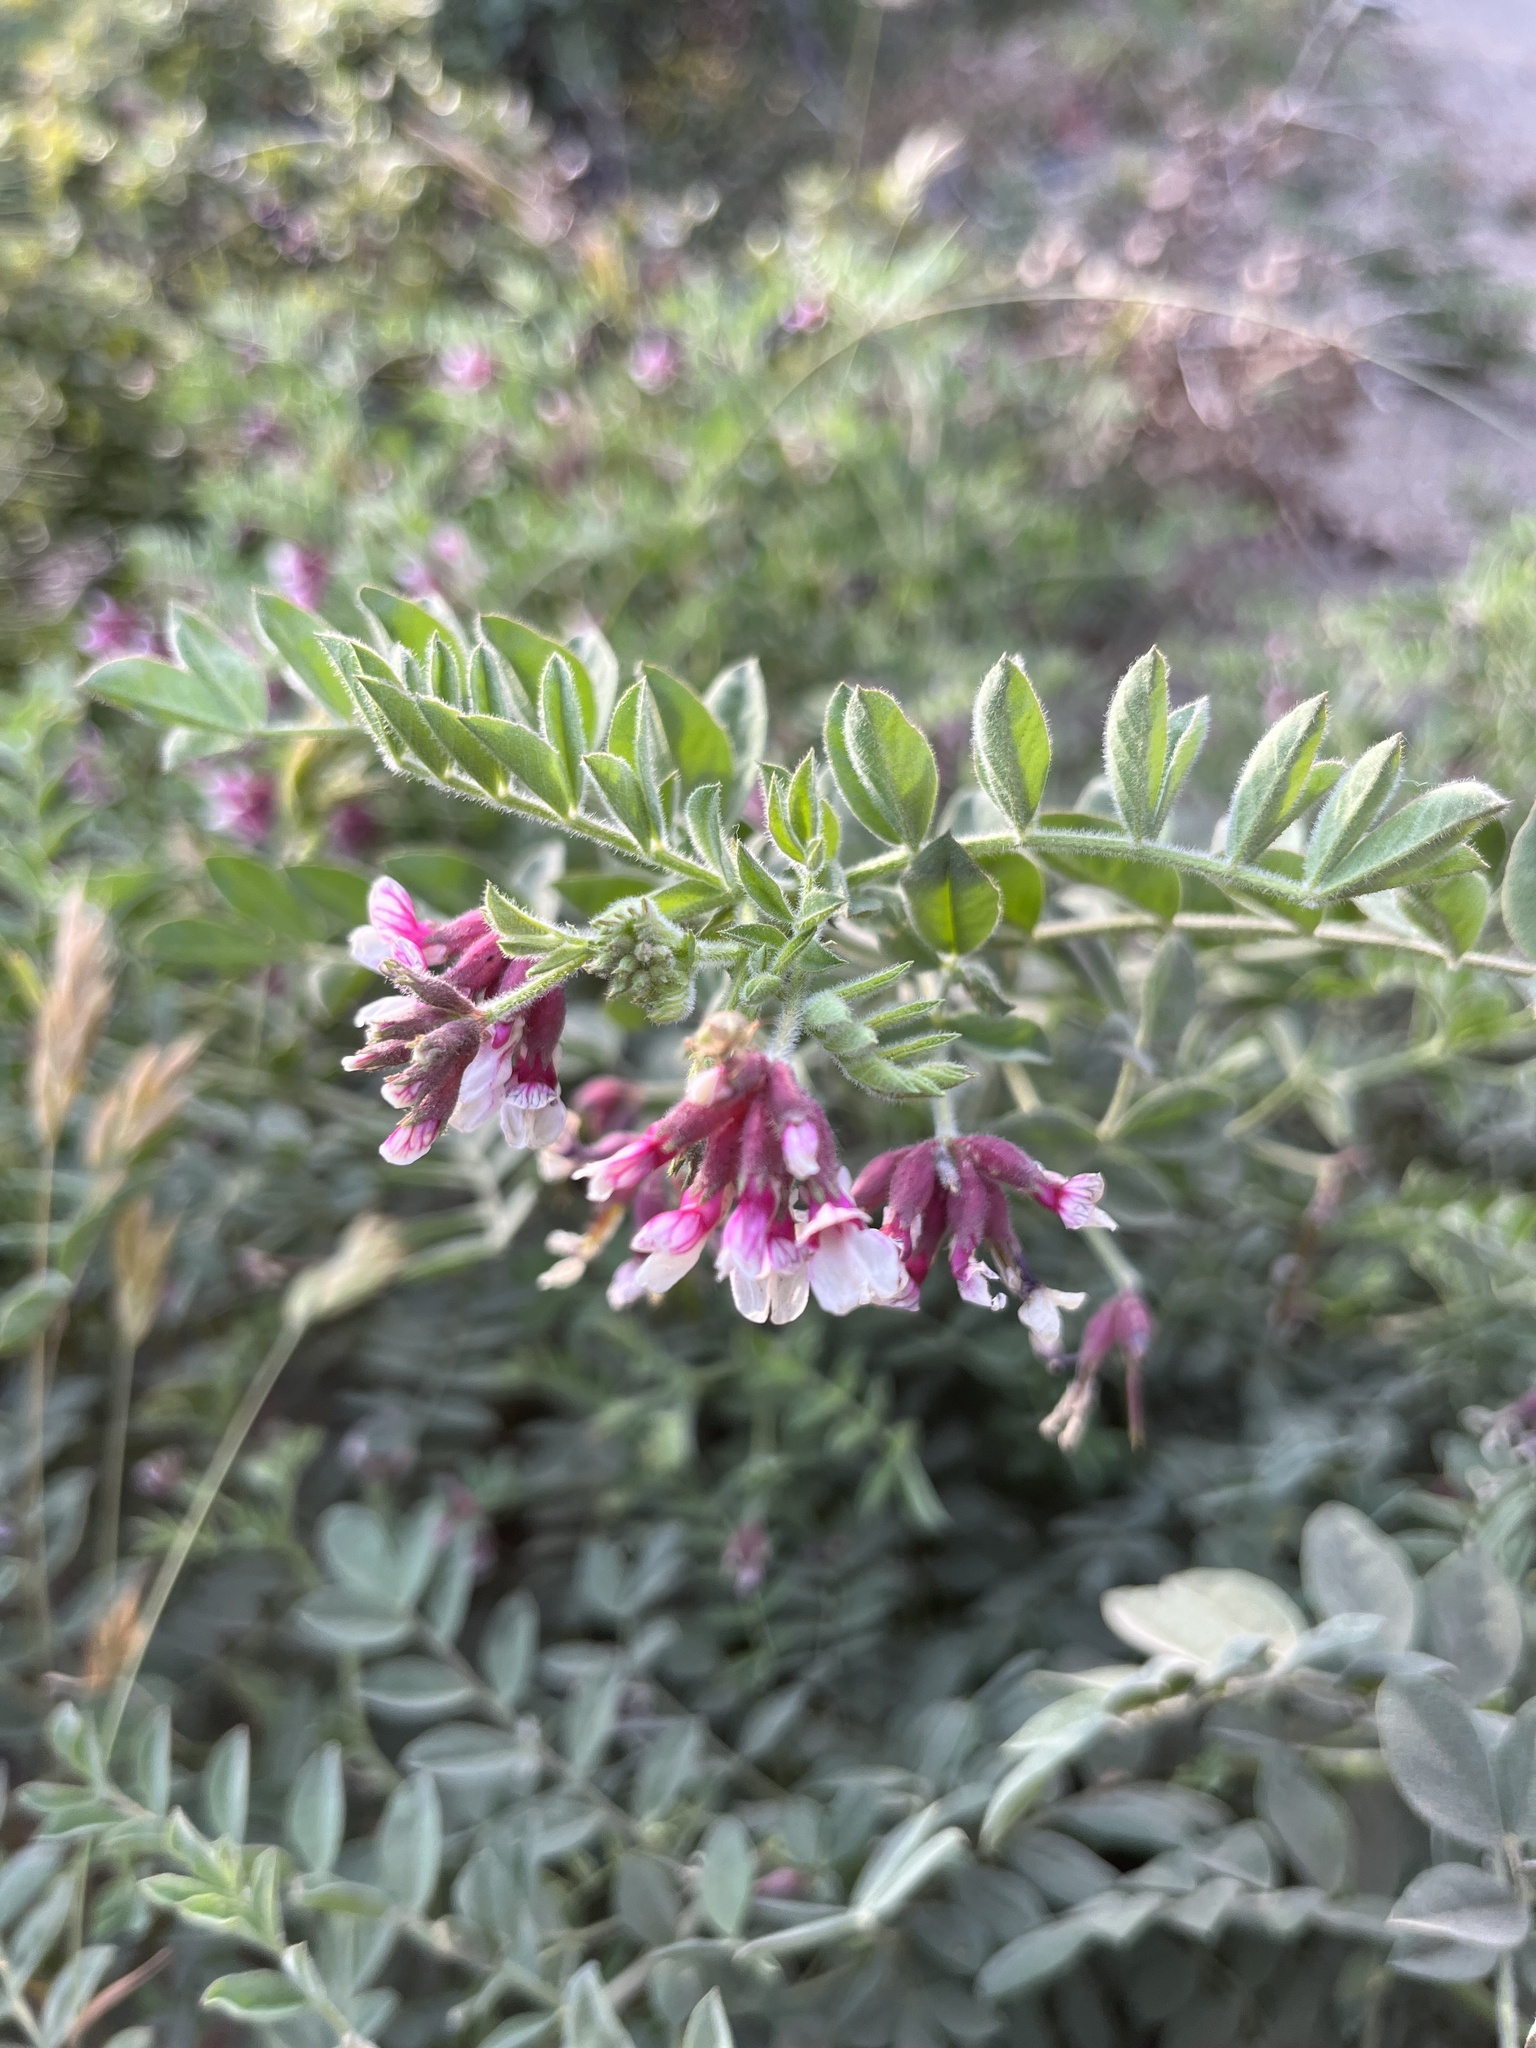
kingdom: Plantae
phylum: Tracheophyta
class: Magnoliopsida
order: Fabales
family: Fabaceae
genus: Hosackia
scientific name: Hosackia stipularis
